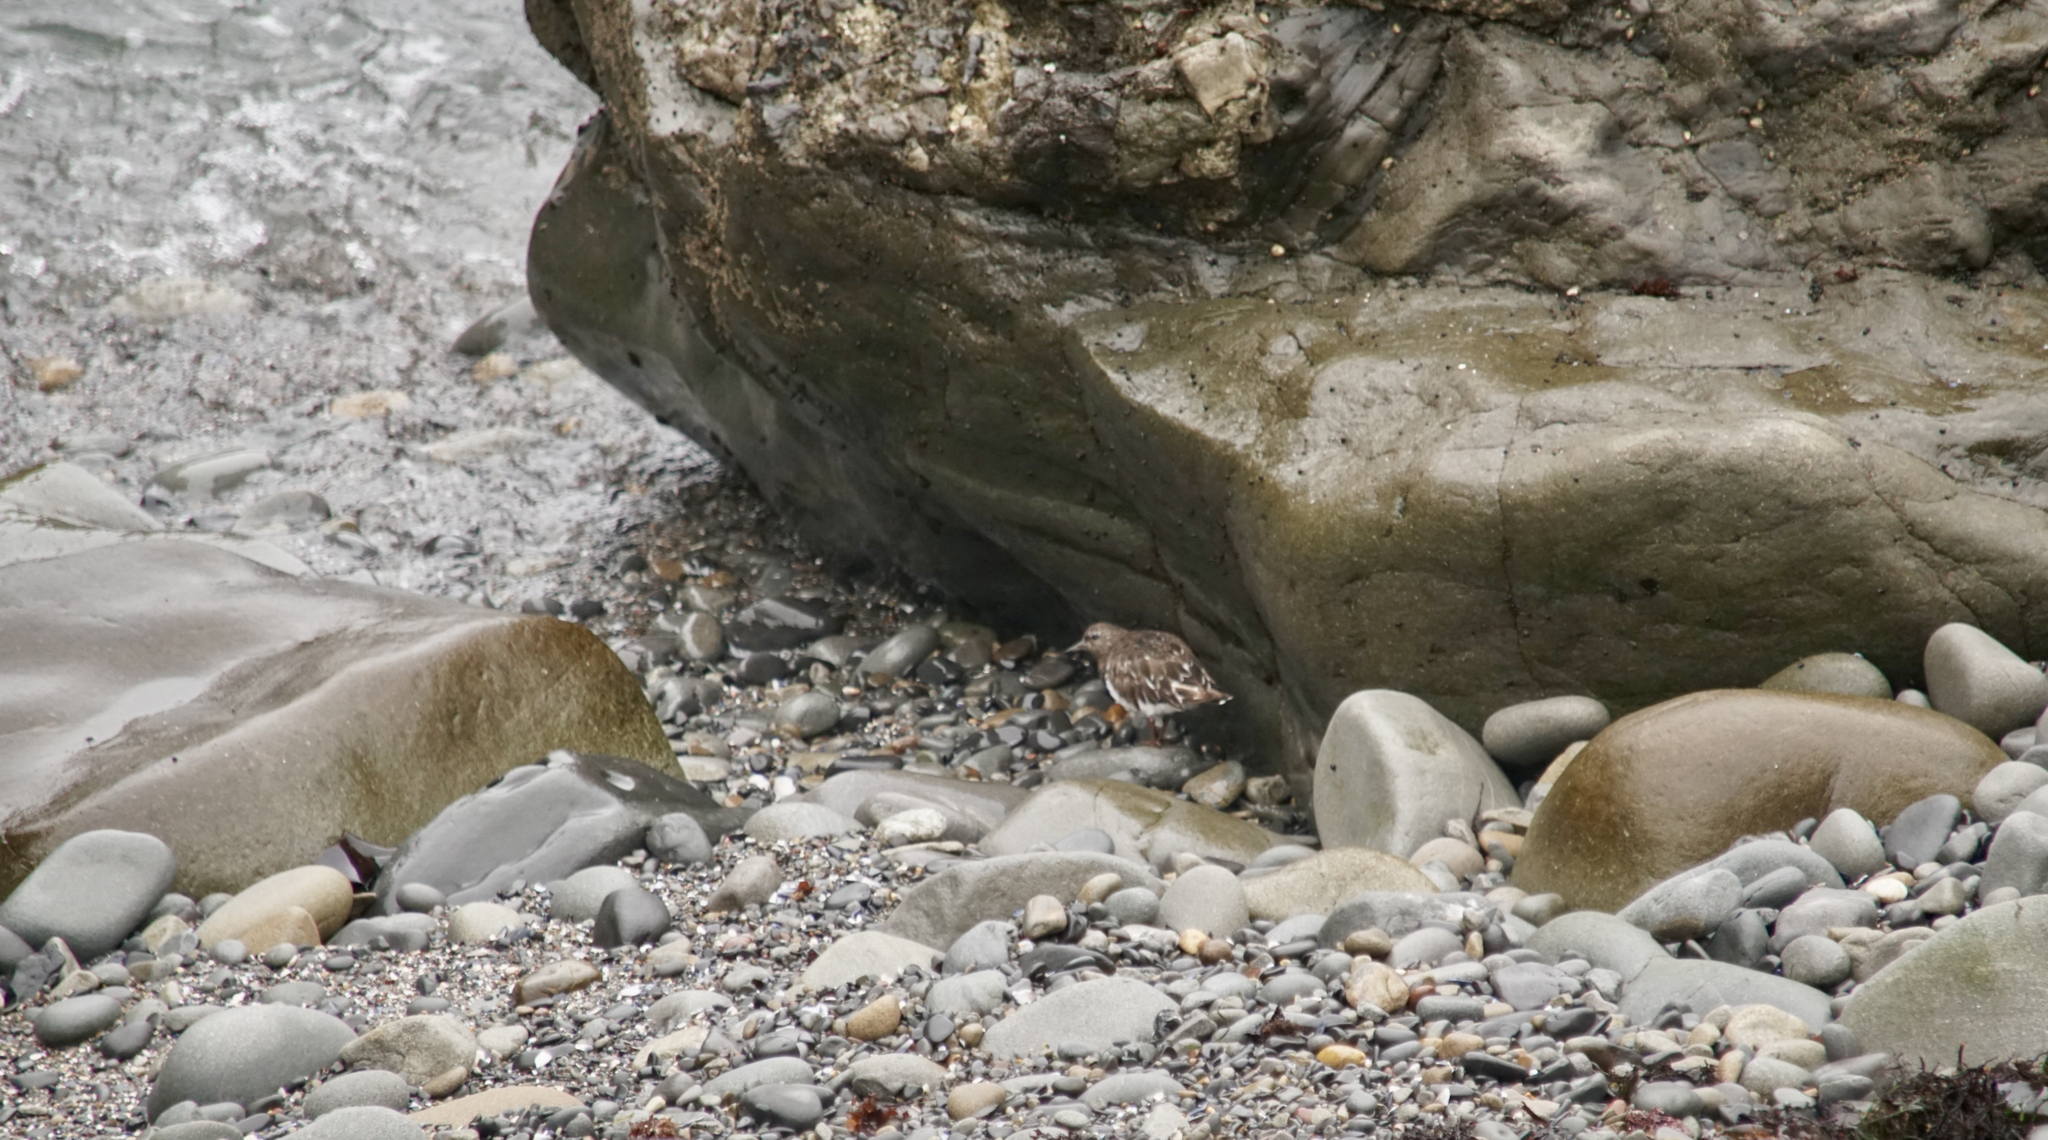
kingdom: Animalia
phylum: Chordata
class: Aves
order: Charadriiformes
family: Scolopacidae
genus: Arenaria
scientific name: Arenaria melanocephala
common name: Black turnstone
